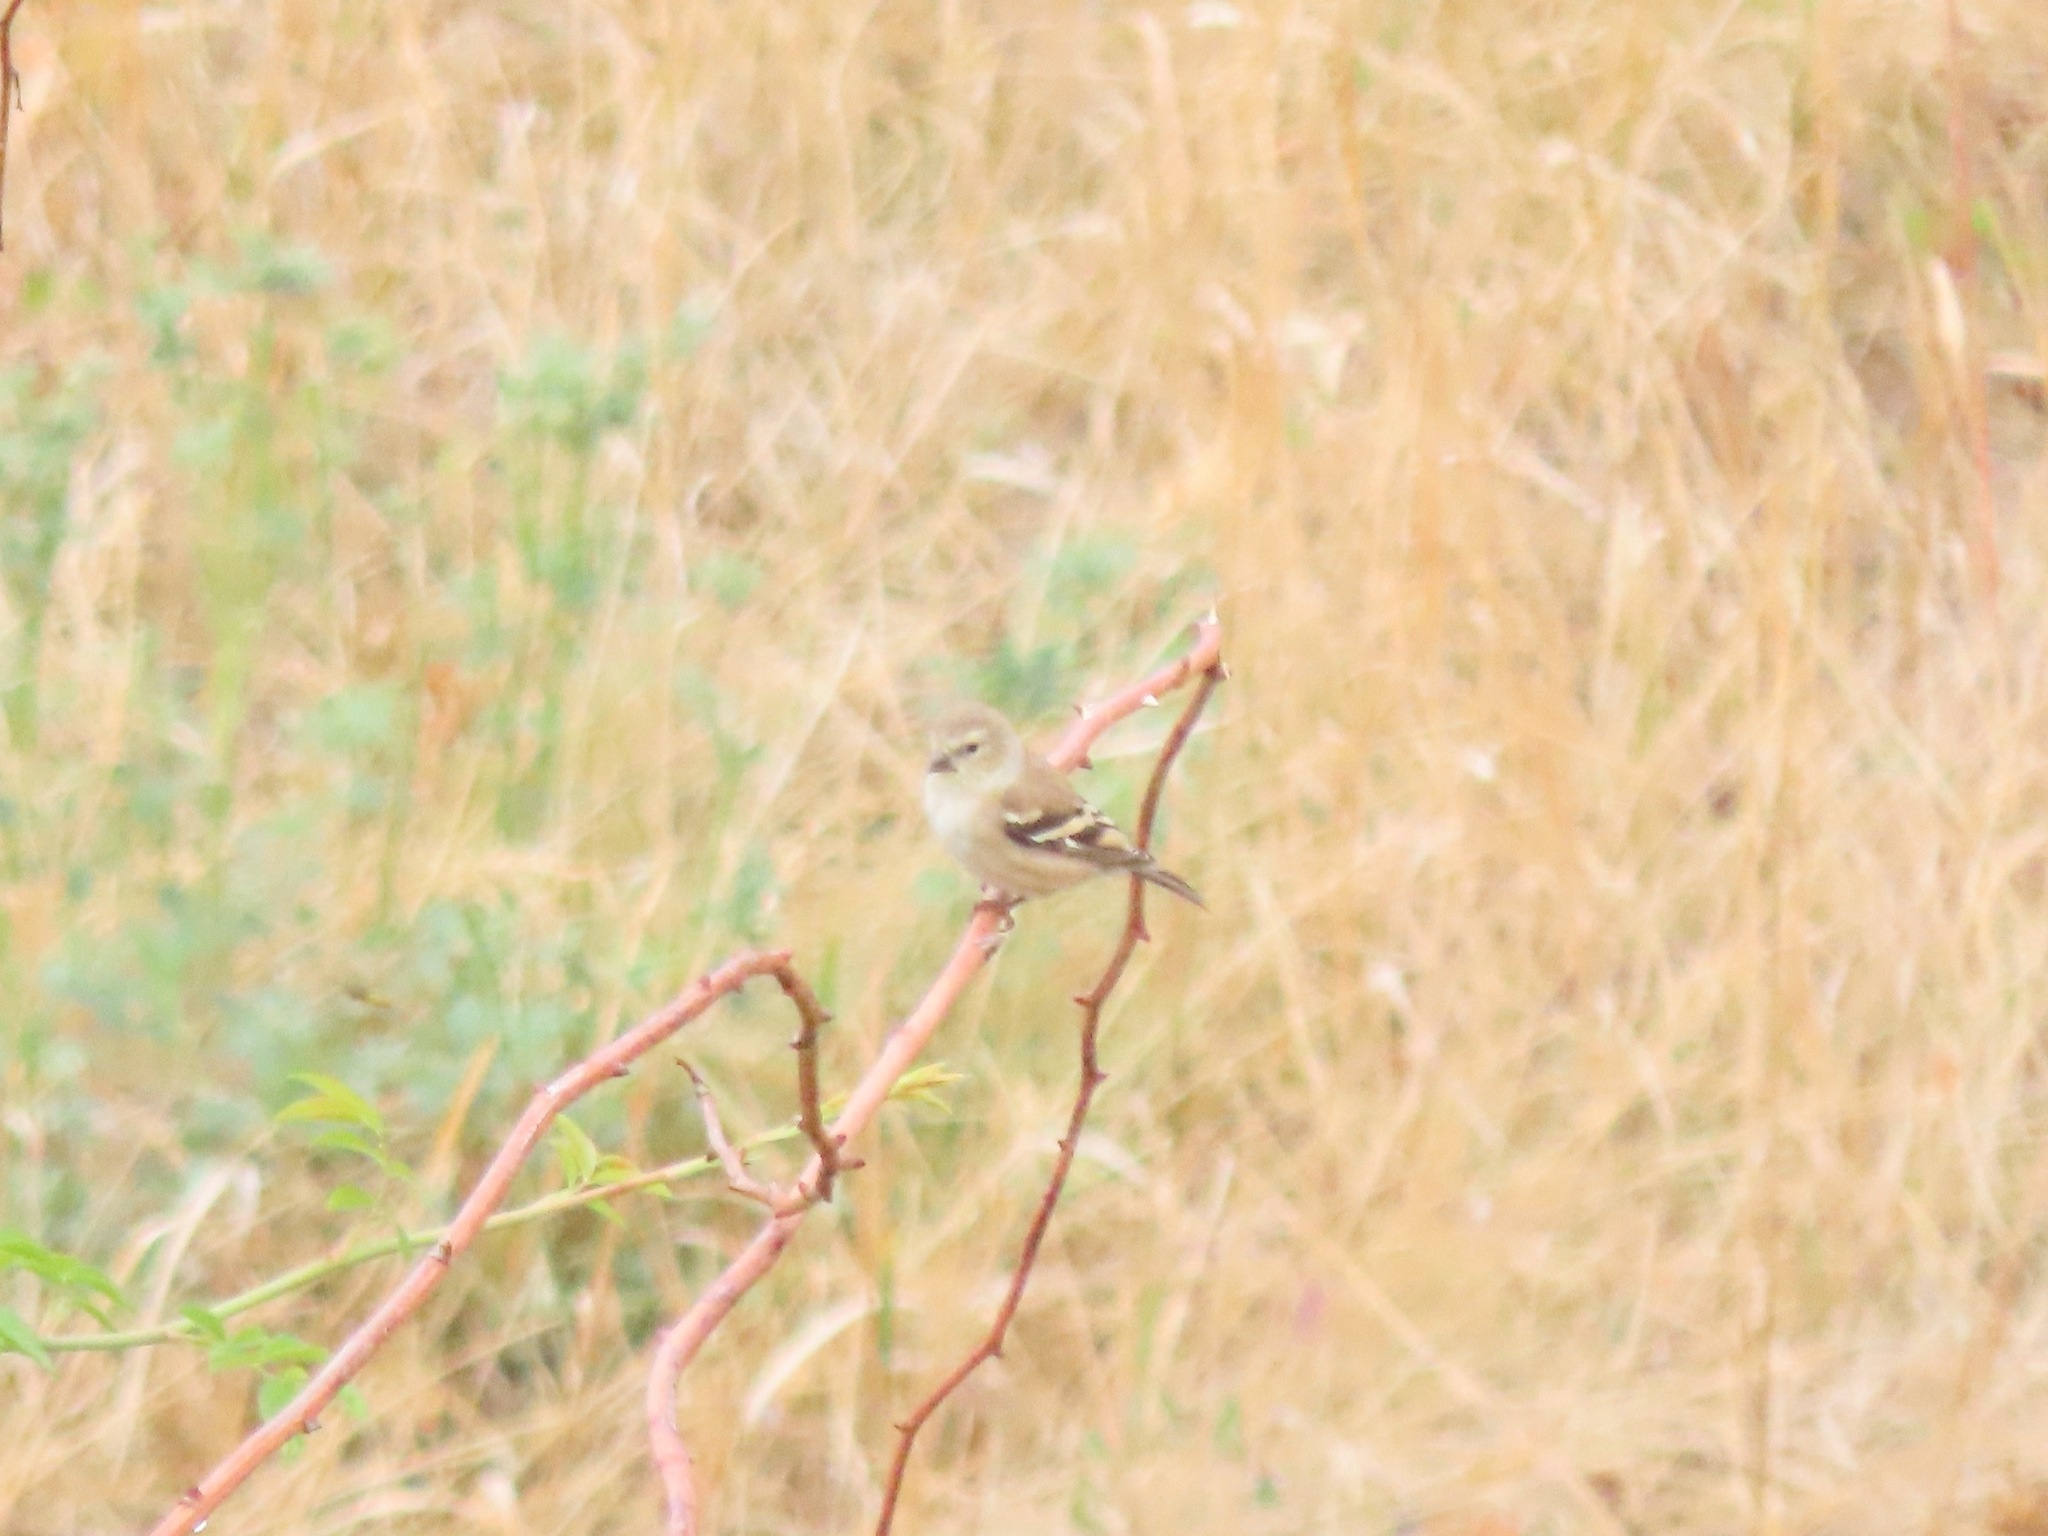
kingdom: Animalia
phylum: Chordata
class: Aves
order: Passeriformes
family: Fringillidae
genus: Spinus
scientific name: Spinus tristis
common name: American goldfinch
